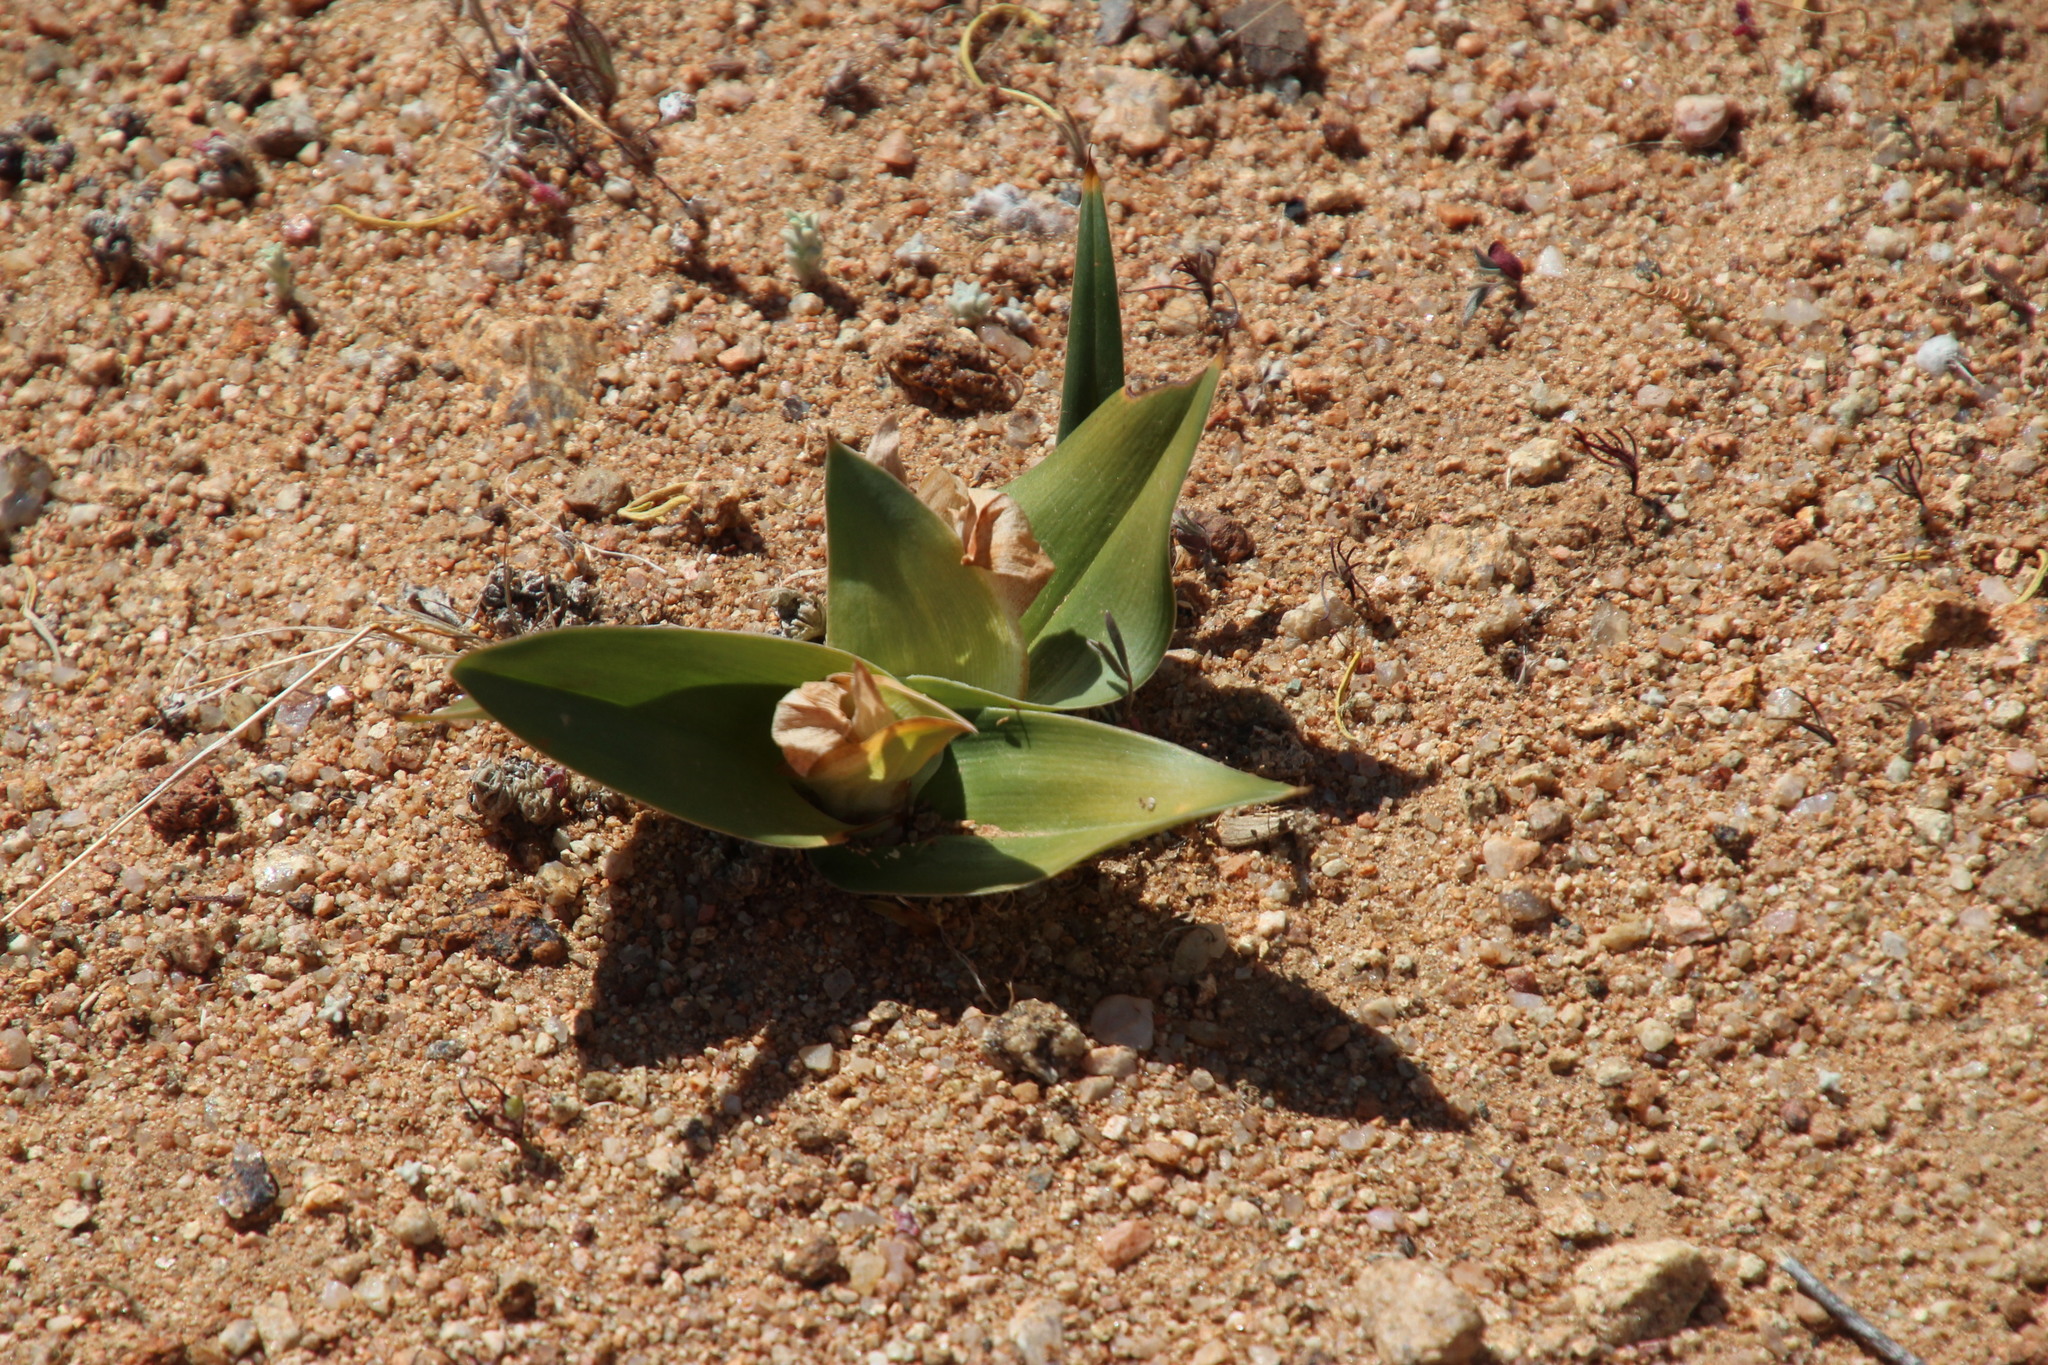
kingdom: Plantae
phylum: Tracheophyta
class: Liliopsida
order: Liliales
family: Colchicaceae
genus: Colchicum
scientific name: Colchicum capense
